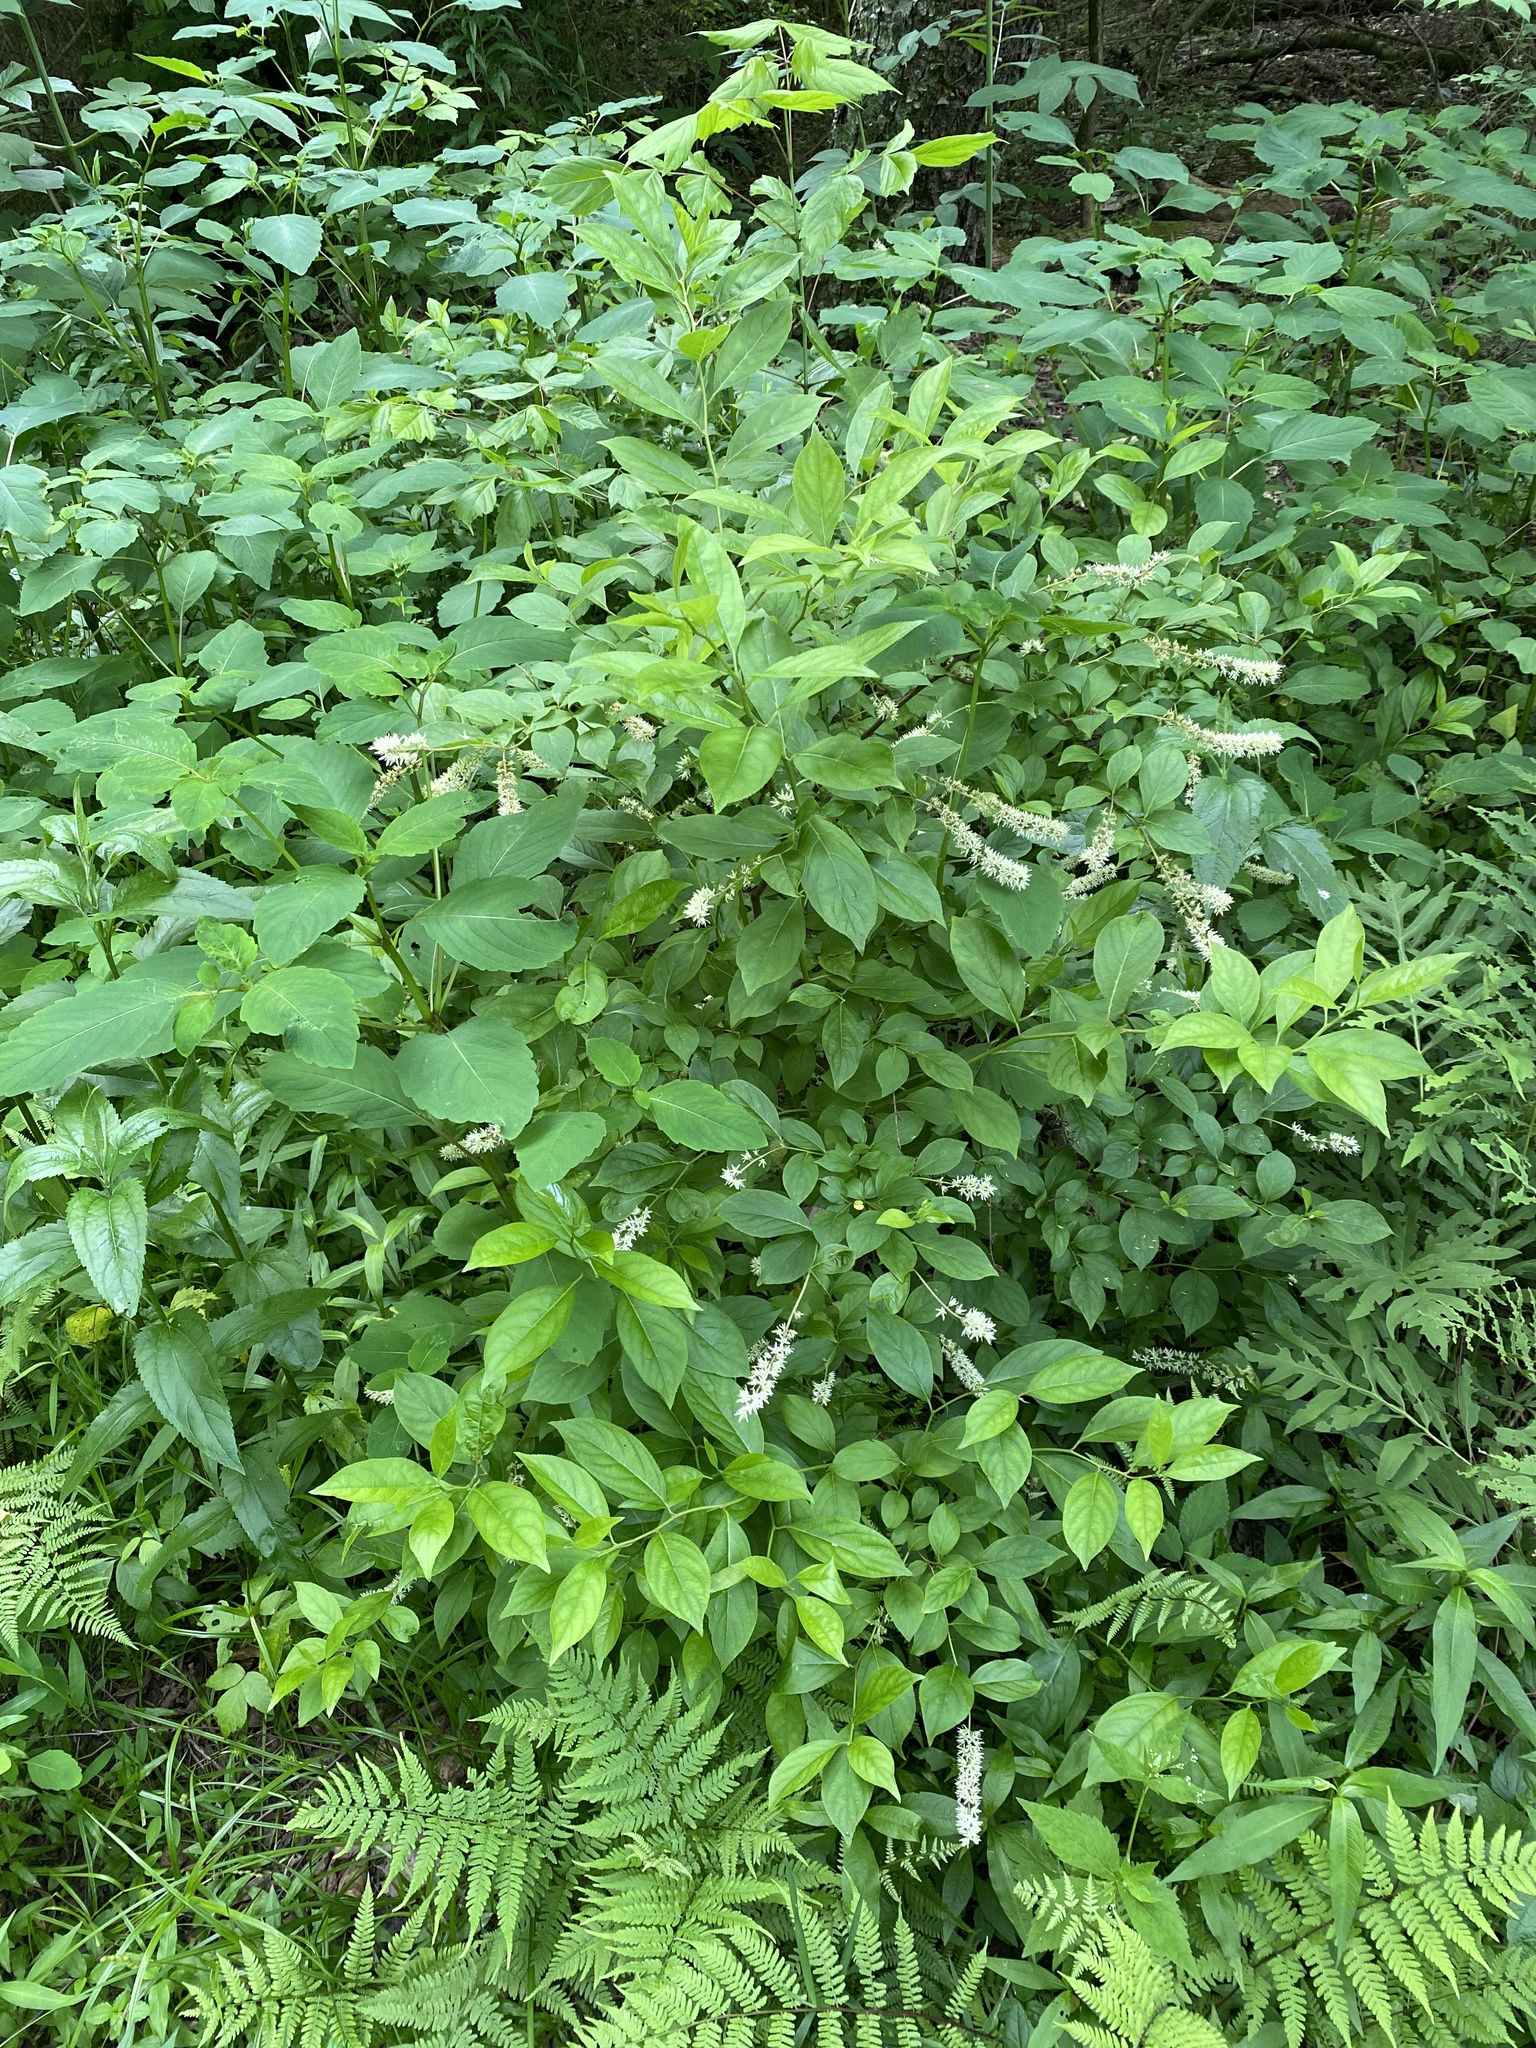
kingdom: Plantae
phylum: Tracheophyta
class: Magnoliopsida
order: Saxifragales
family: Iteaceae
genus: Itea
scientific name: Itea virginica
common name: Sweetspire
